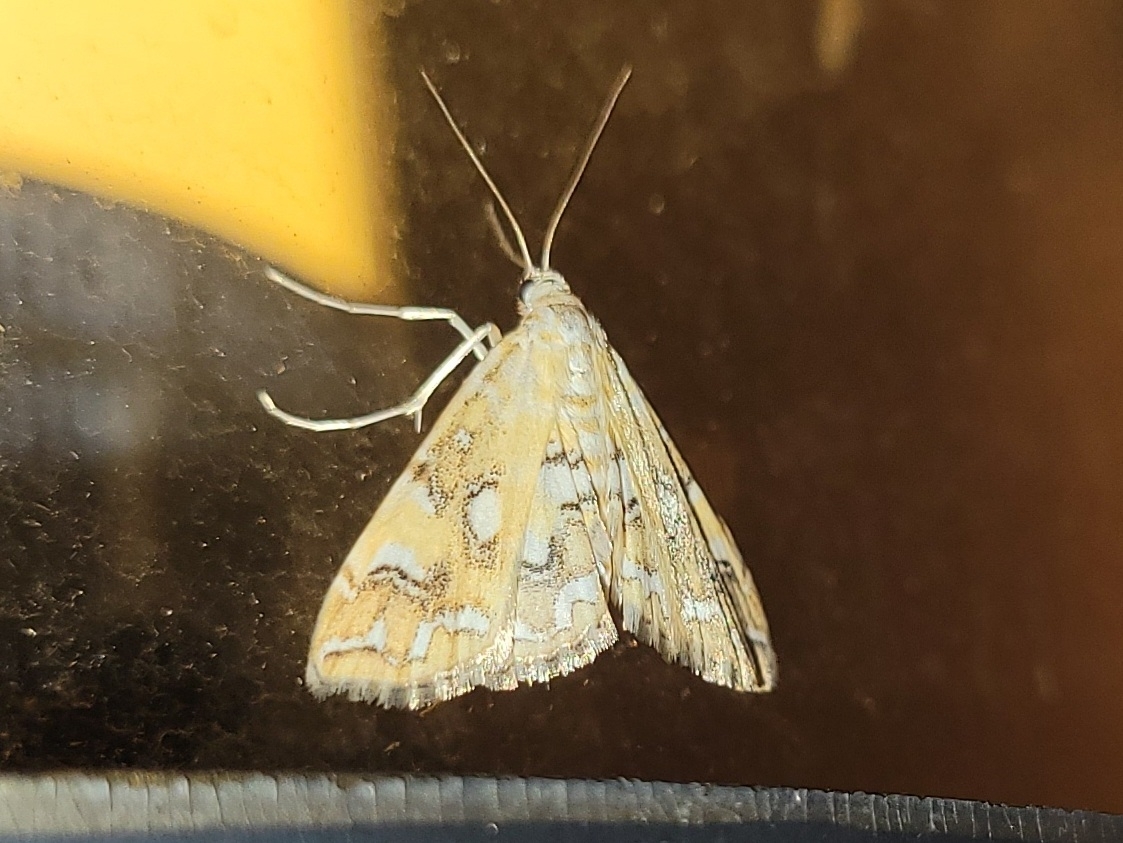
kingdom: Animalia
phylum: Arthropoda
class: Insecta
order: Lepidoptera
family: Crambidae
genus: Elophila
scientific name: Elophila icciusalis
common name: Pondside pyralid moth
